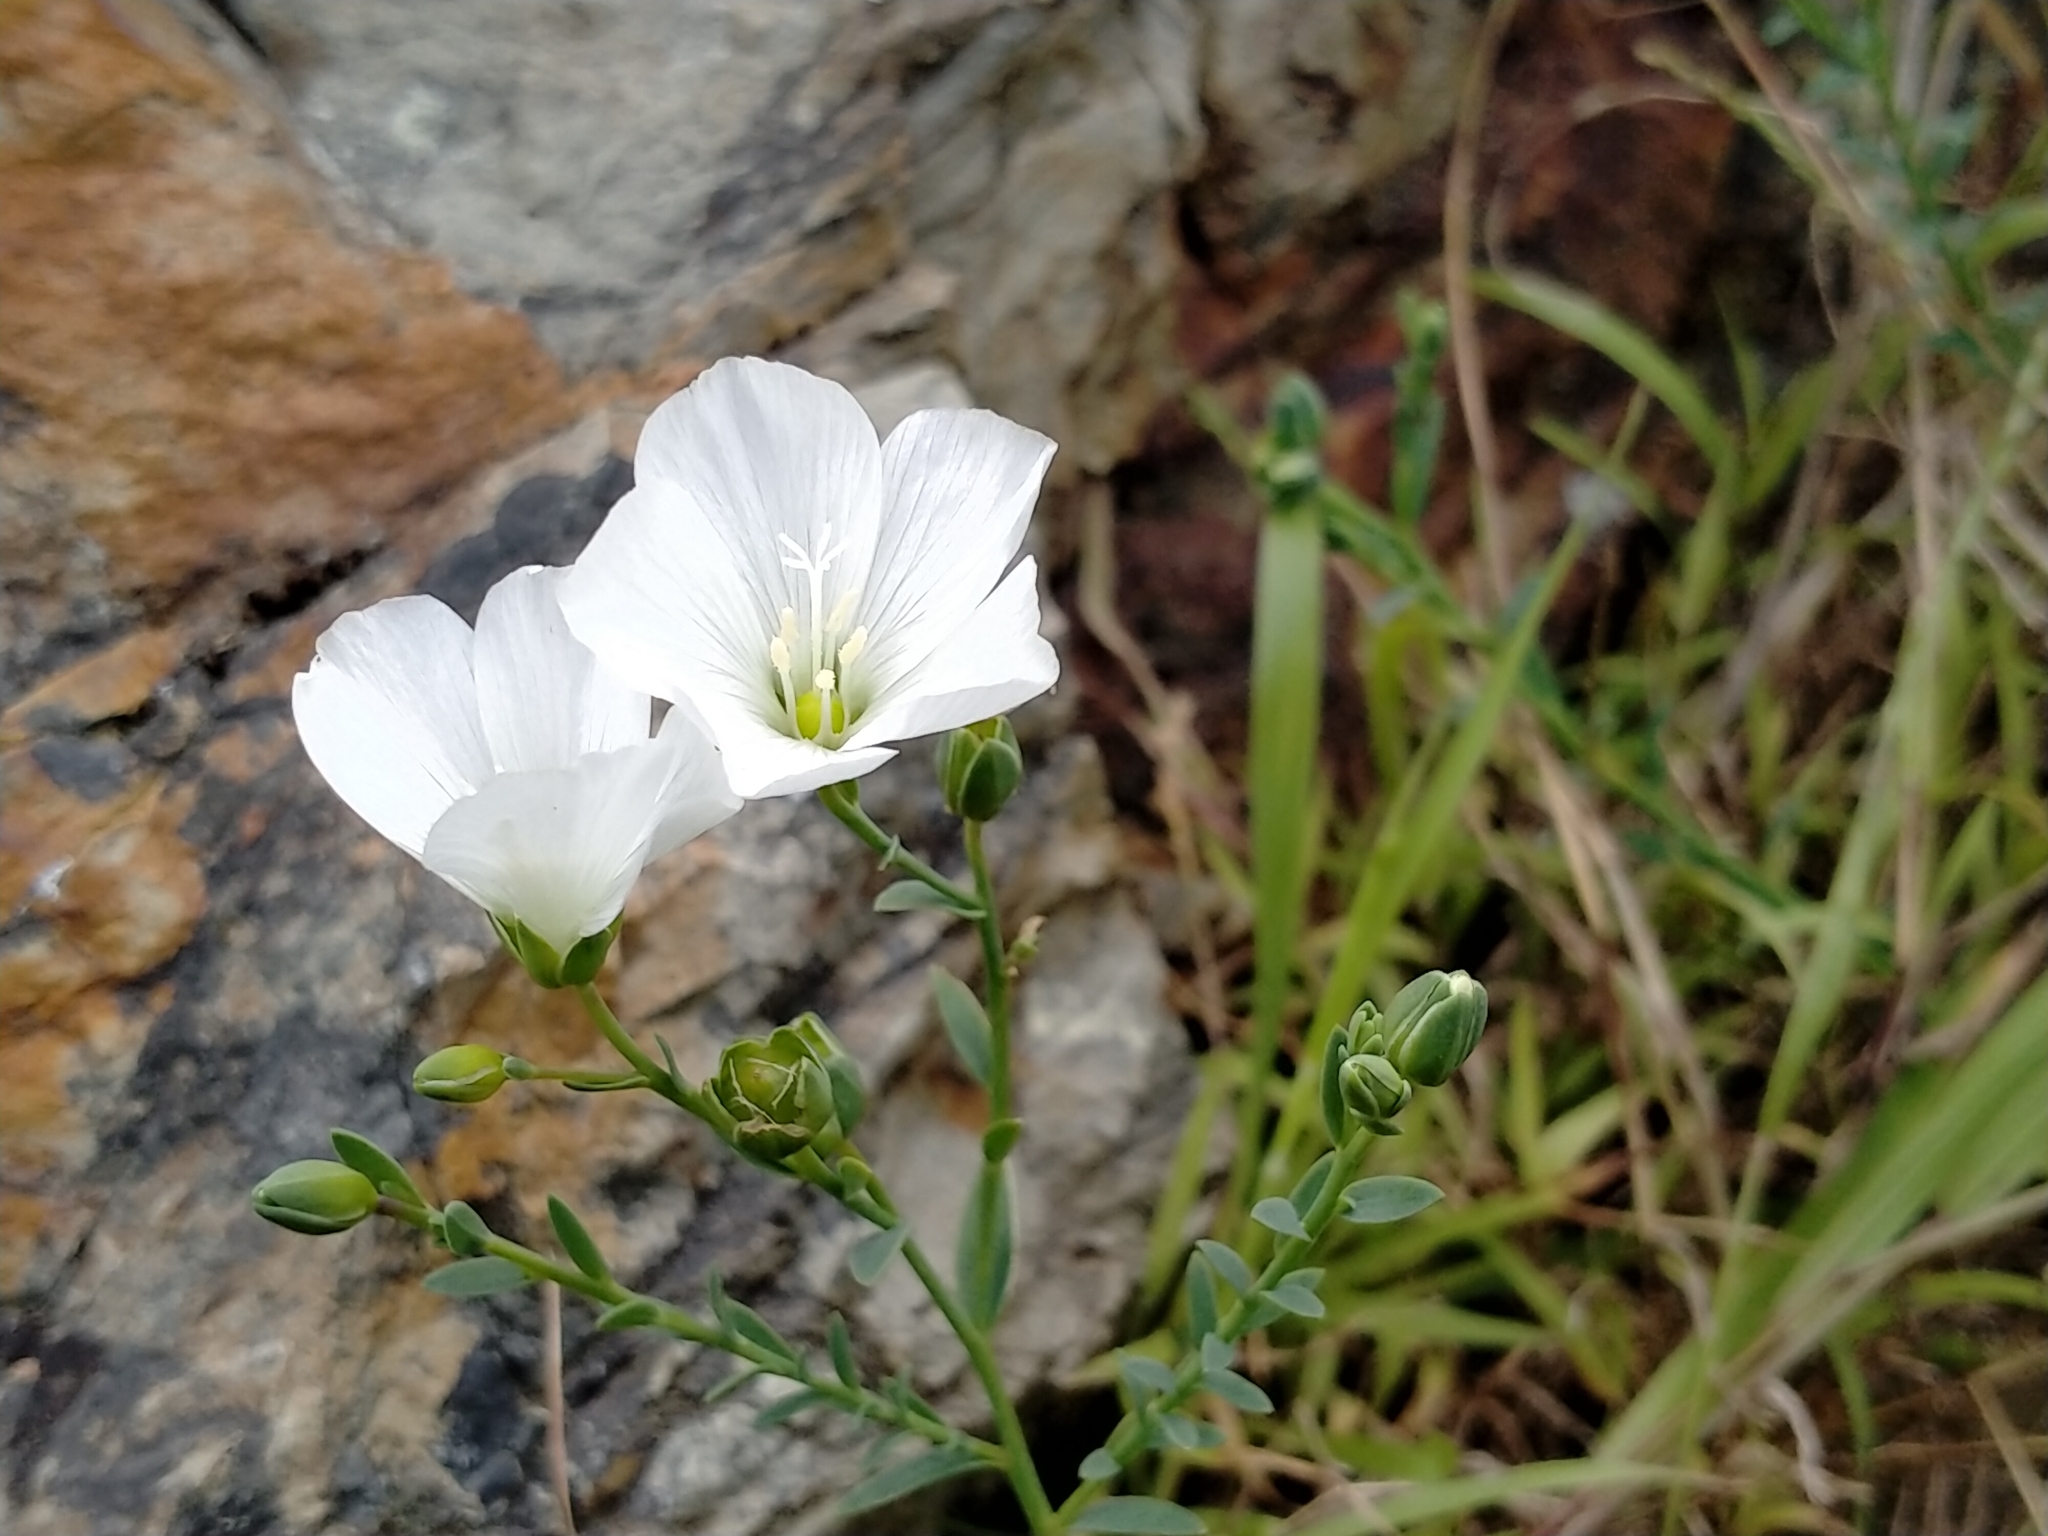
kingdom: Plantae
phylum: Tracheophyta
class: Magnoliopsida
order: Malpighiales
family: Linaceae
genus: Linum
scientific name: Linum monogynum
